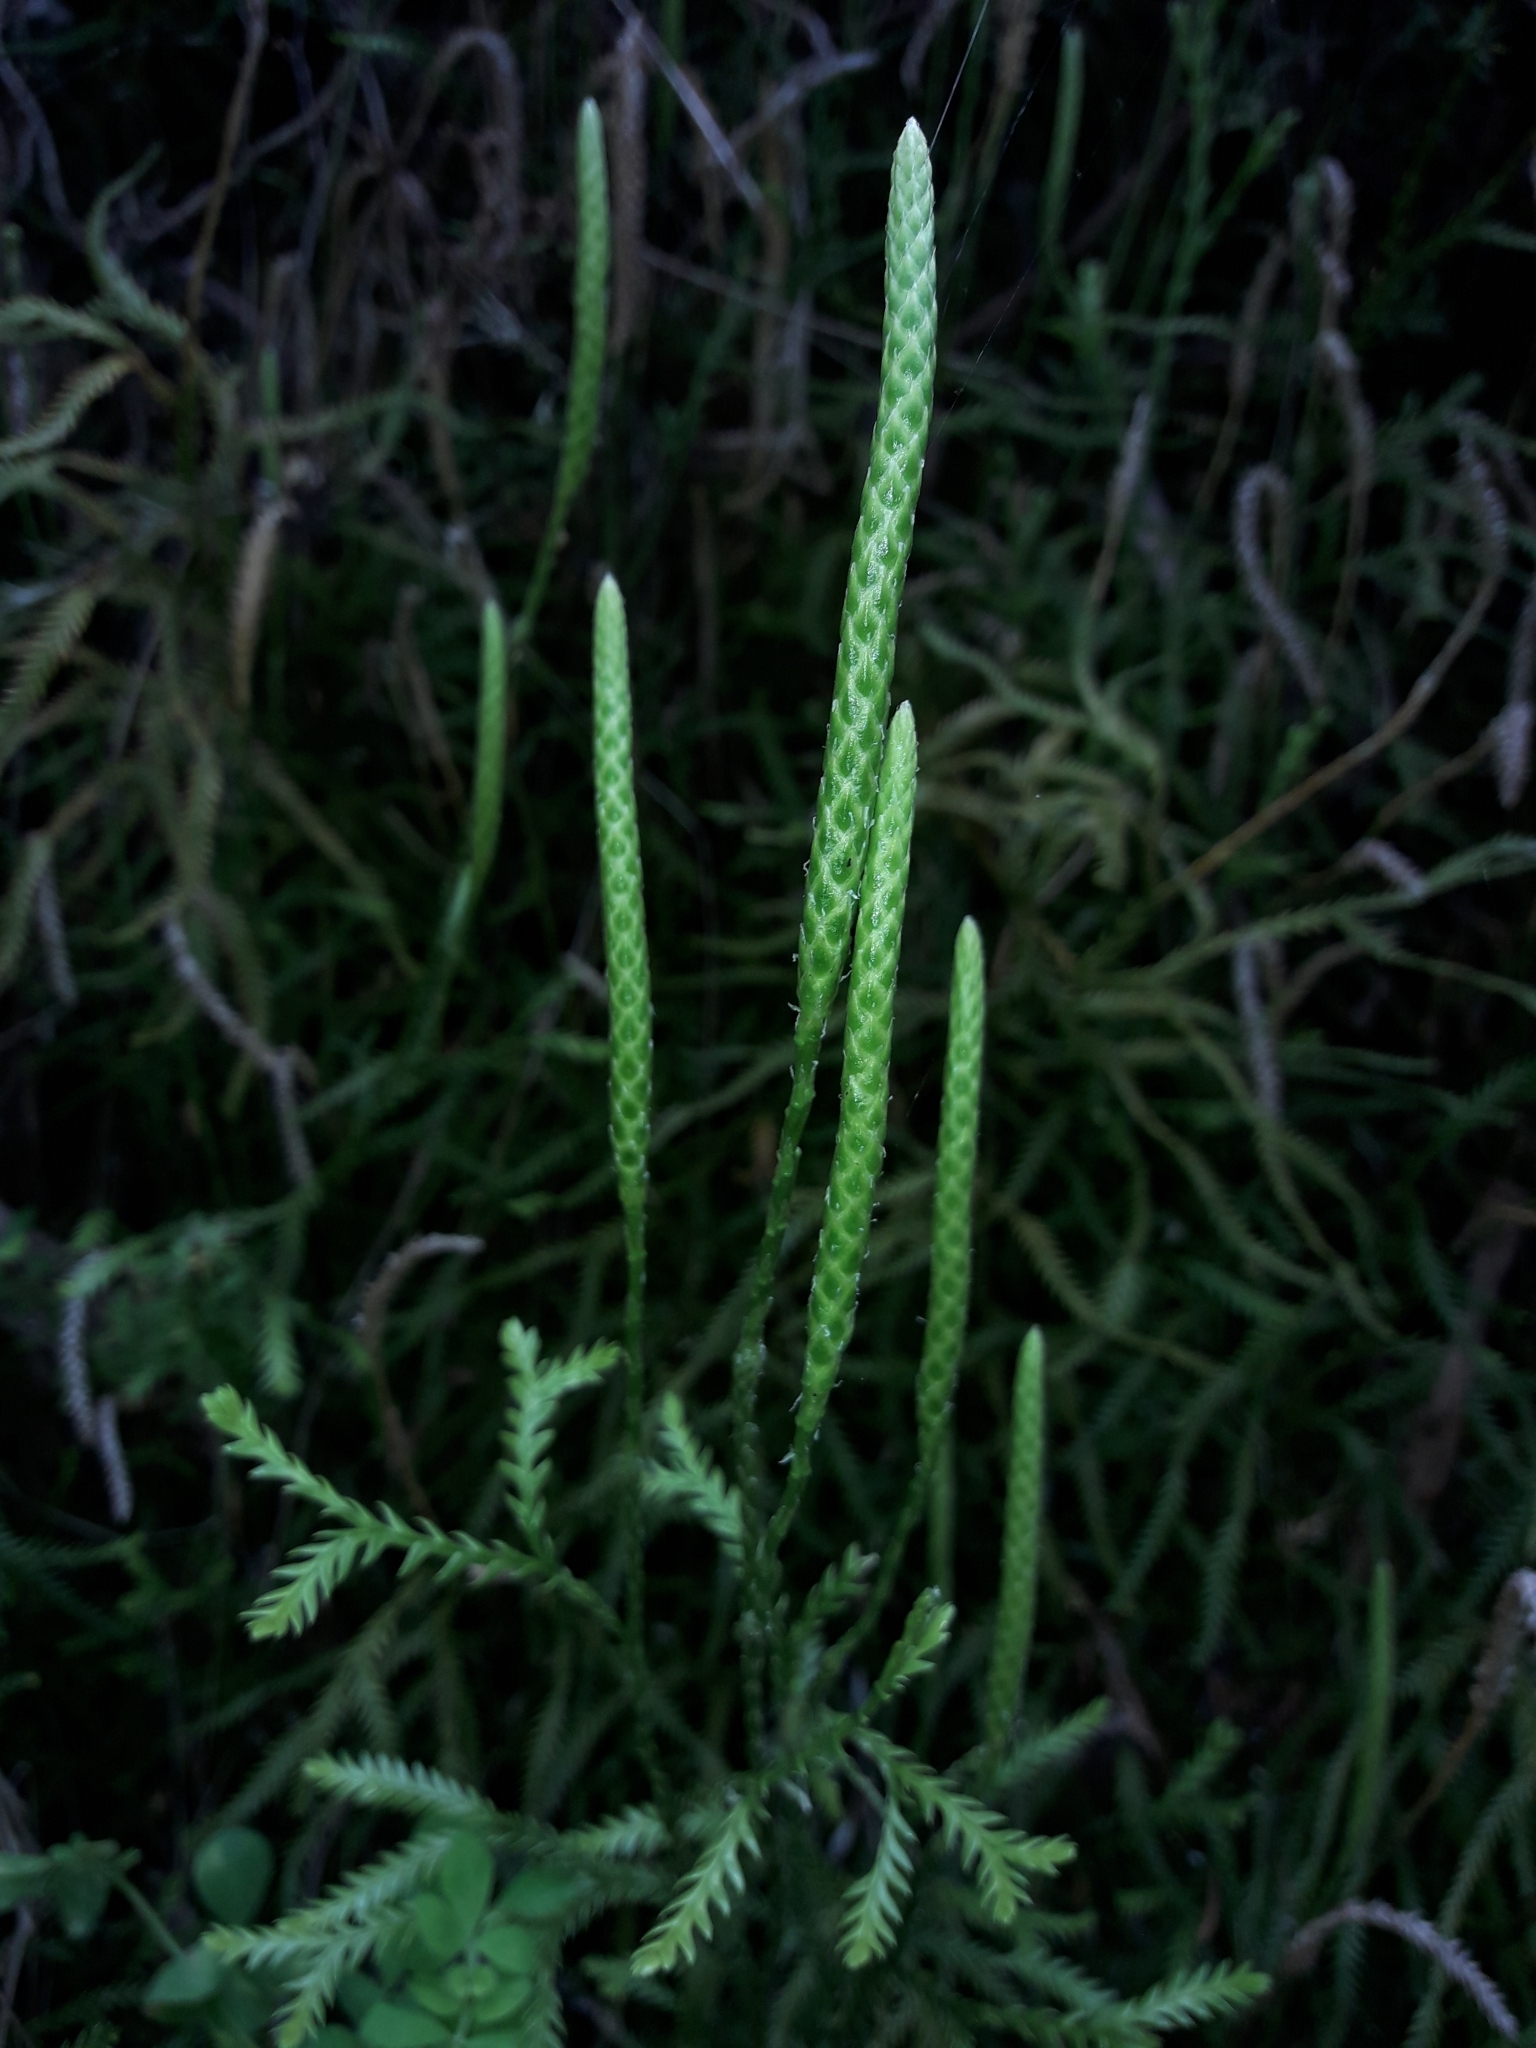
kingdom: Plantae
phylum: Tracheophyta
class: Lycopodiopsida
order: Lycopodiales
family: Lycopodiaceae
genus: Diphasium
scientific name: Diphasium scariosum
